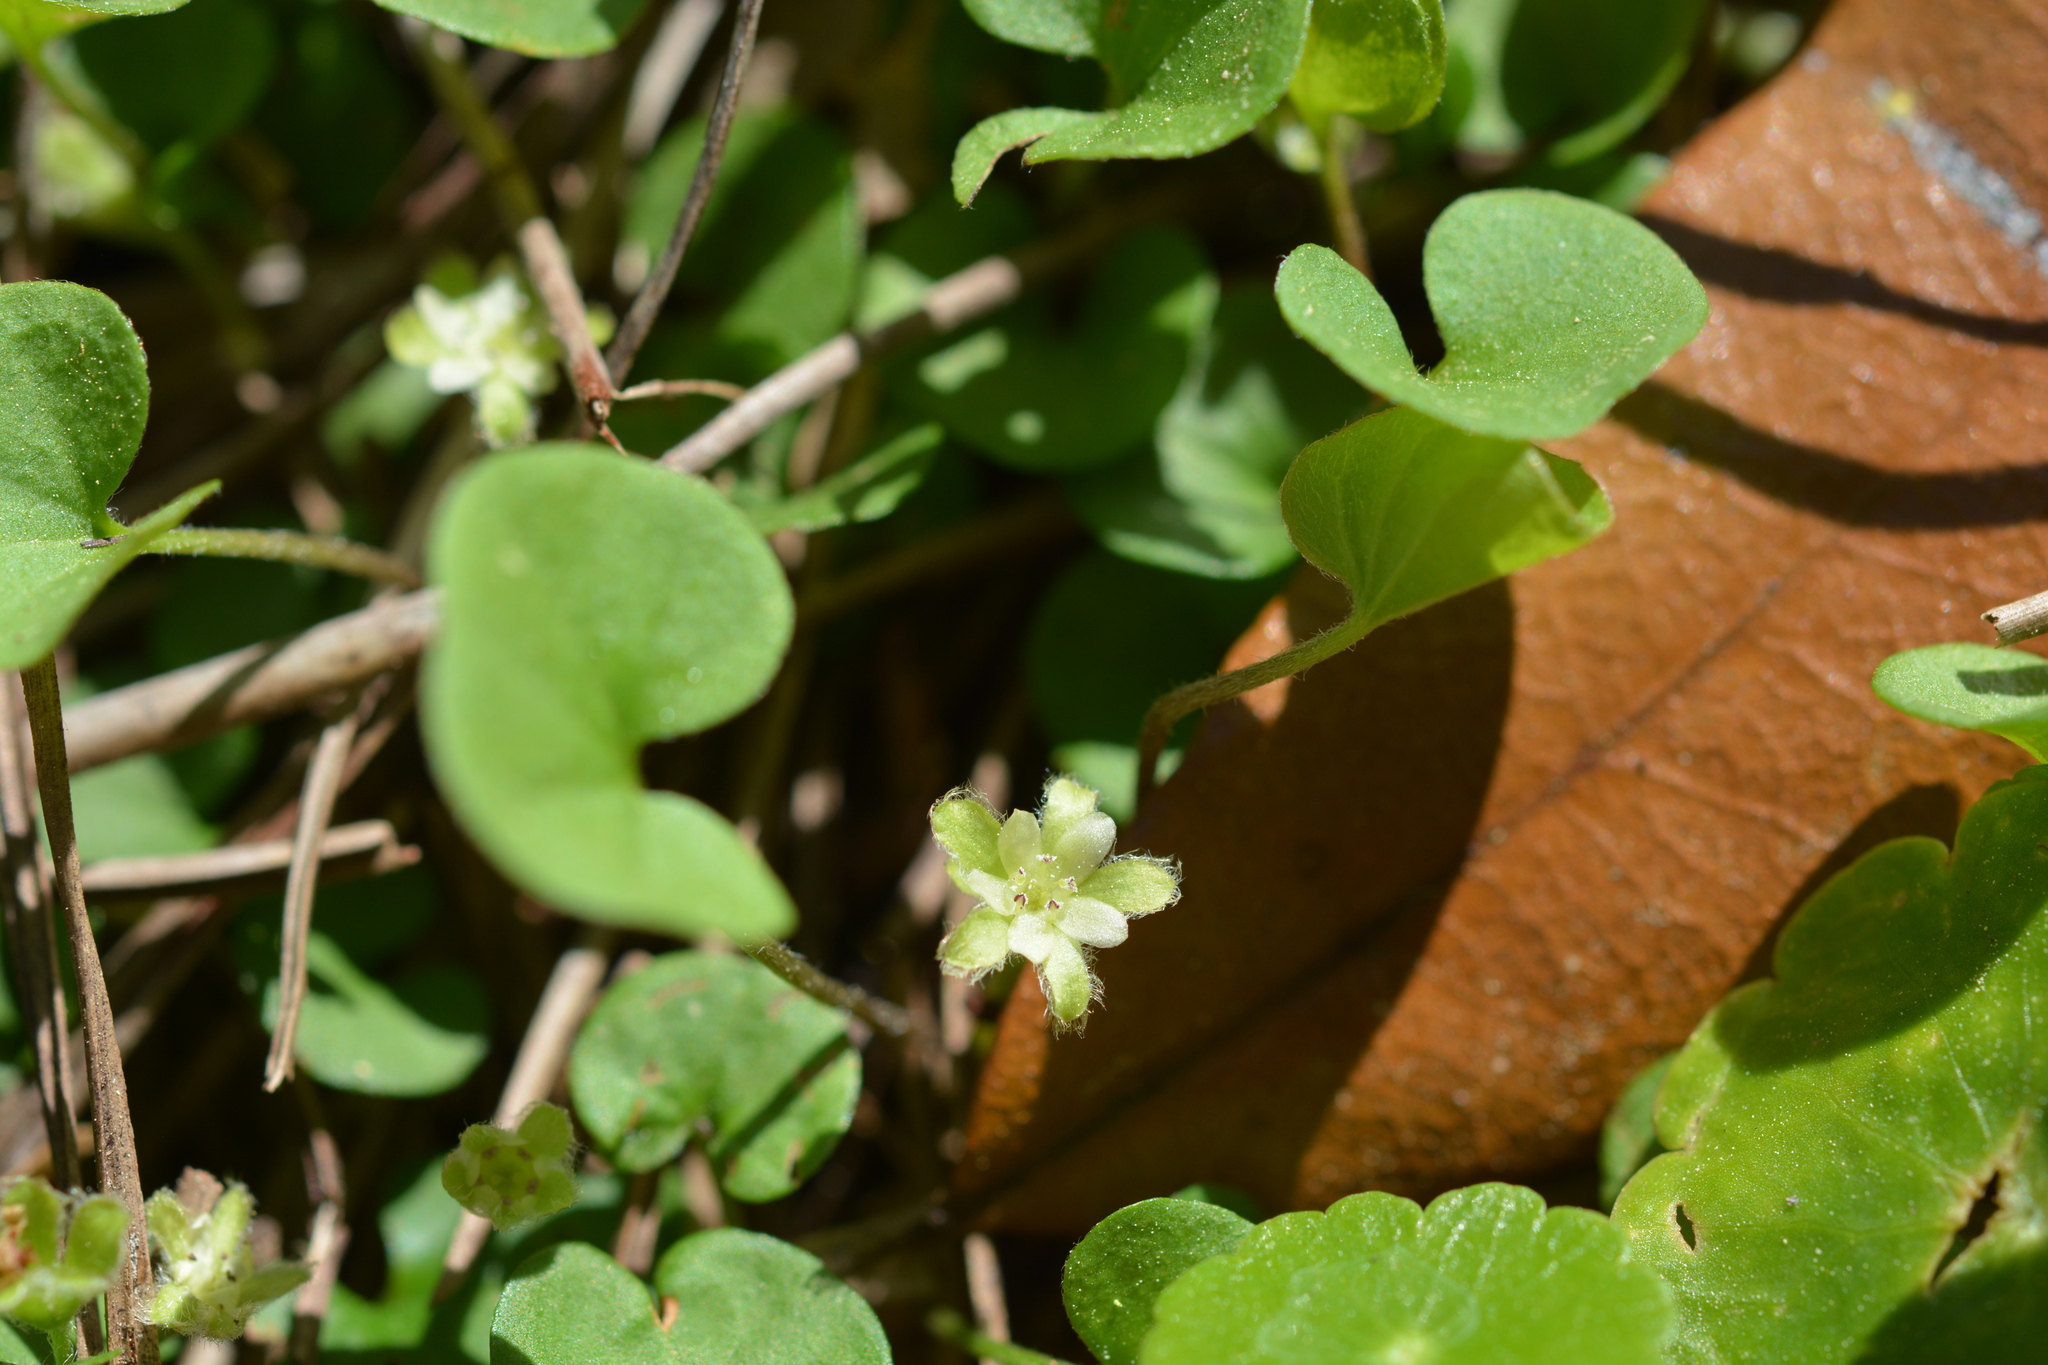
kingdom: Plantae
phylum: Tracheophyta
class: Magnoliopsida
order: Solanales
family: Convolvulaceae
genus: Dichondra
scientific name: Dichondra carolinensis
